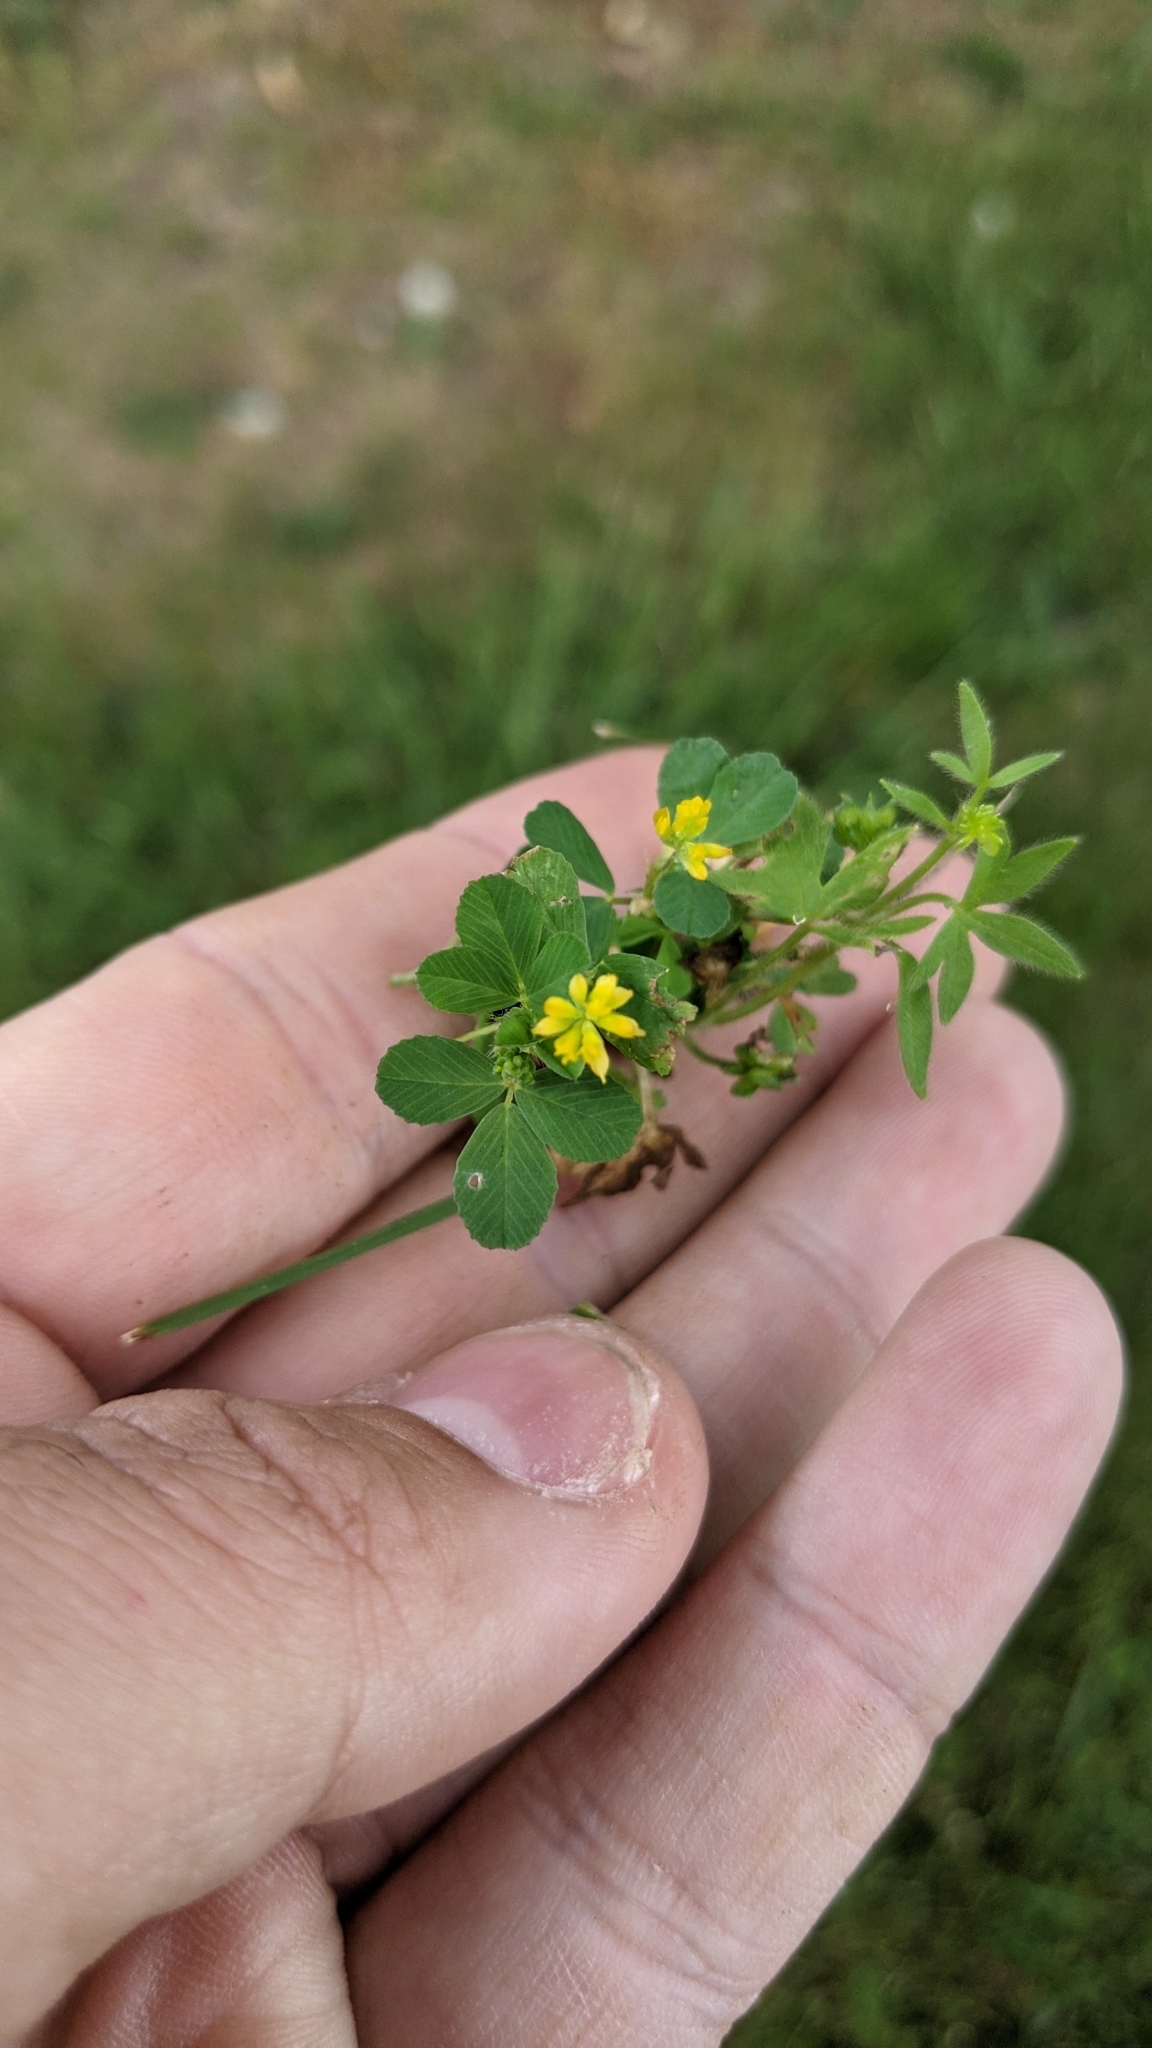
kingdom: Plantae
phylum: Tracheophyta
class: Magnoliopsida
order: Fabales
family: Fabaceae
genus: Trifolium
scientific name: Trifolium dubium
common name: Suckling clover
